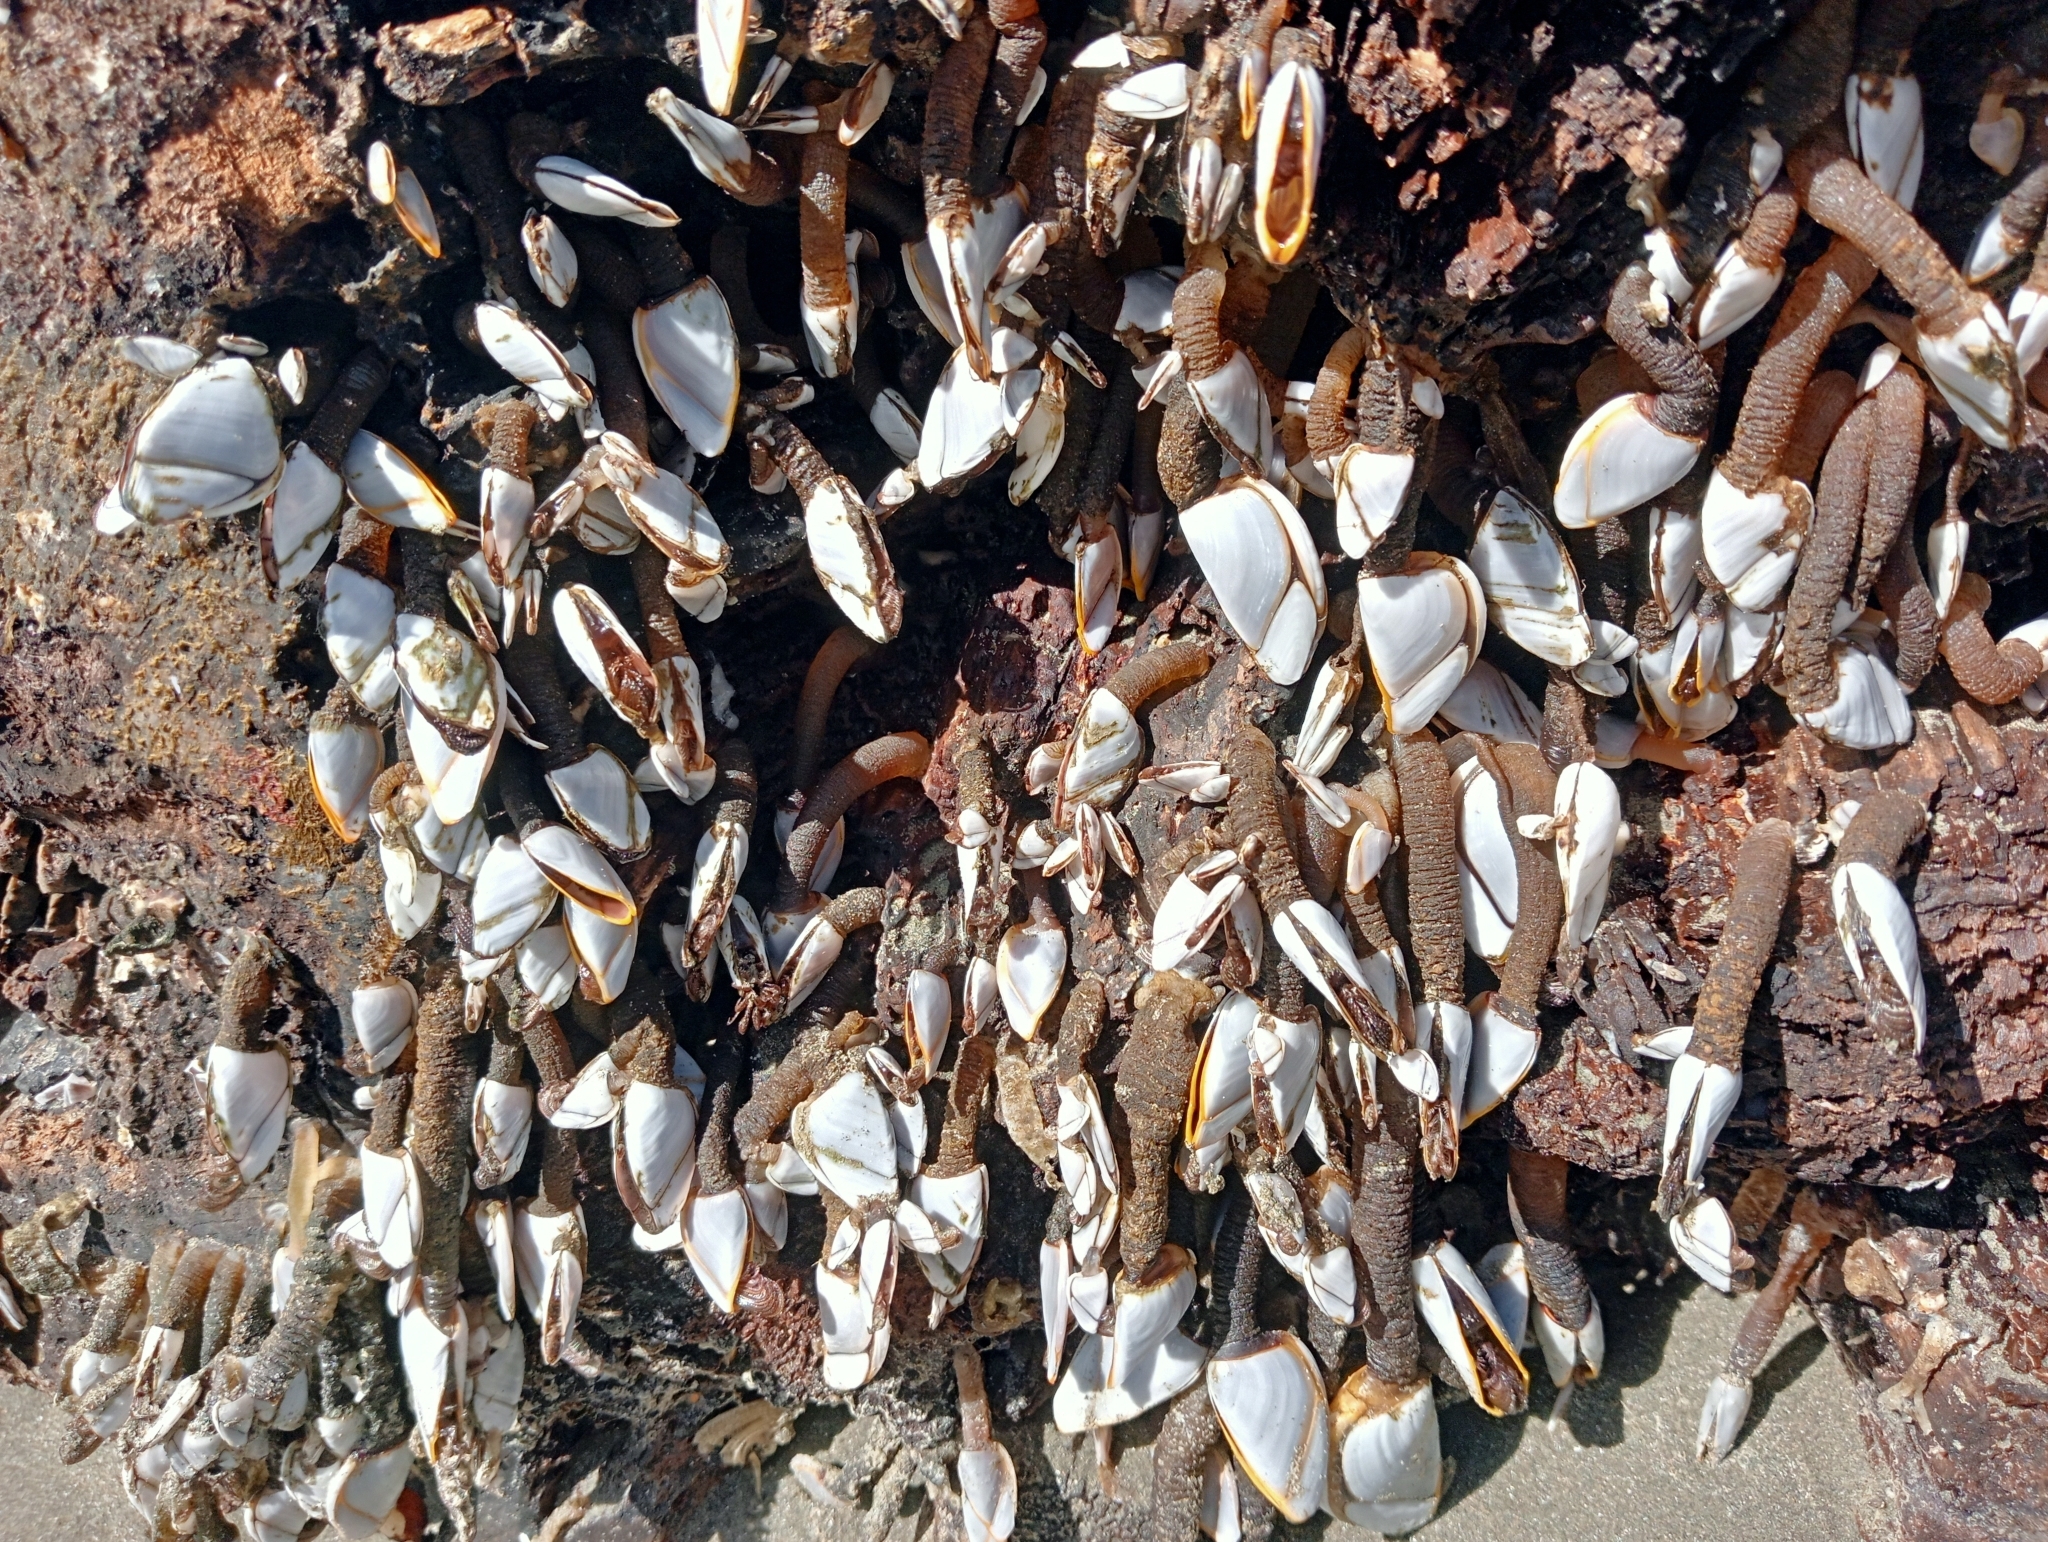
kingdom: Animalia
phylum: Arthropoda
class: Maxillopoda
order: Pedunculata
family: Lepadidae
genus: Lepas
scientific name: Lepas anatifera
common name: Common goose barnacle
